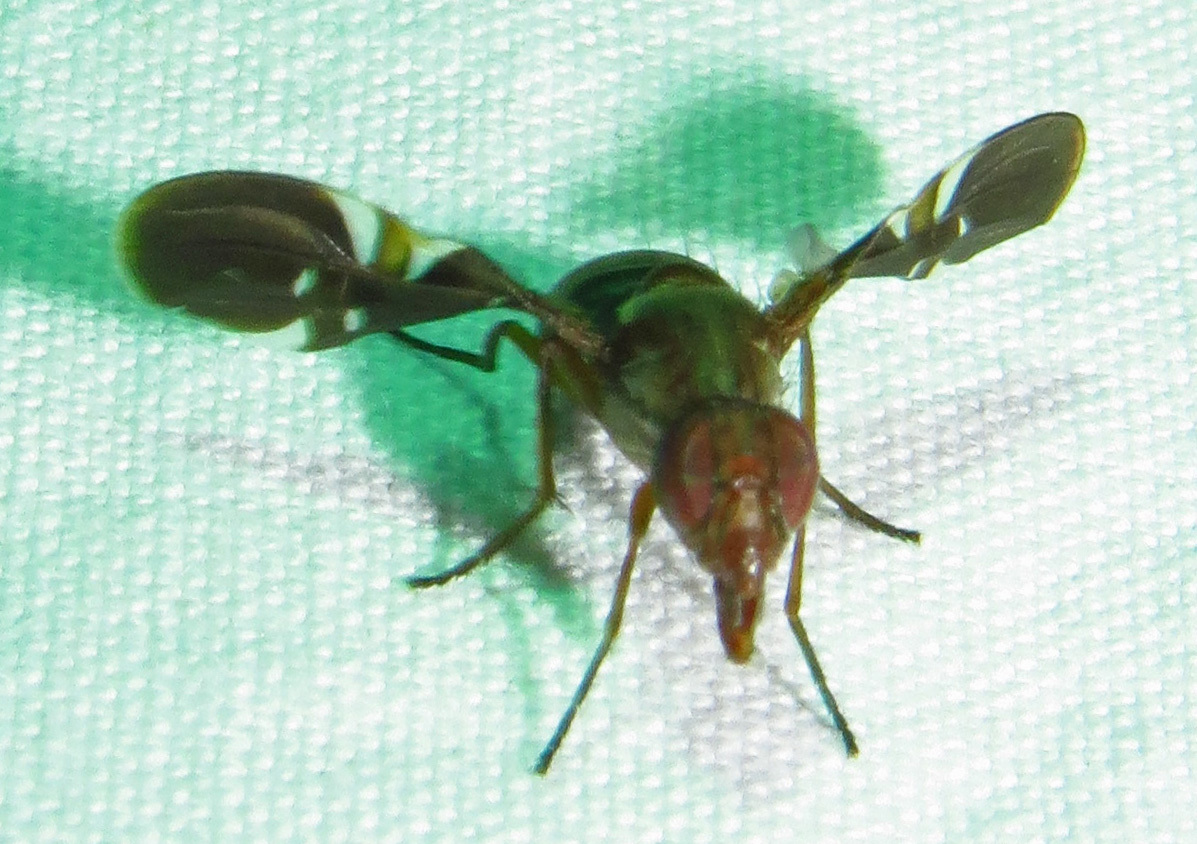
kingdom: Animalia
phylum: Arthropoda
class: Insecta
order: Diptera
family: Ulidiidae
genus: Delphinia
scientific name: Delphinia picta
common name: Common picture-winged fly
